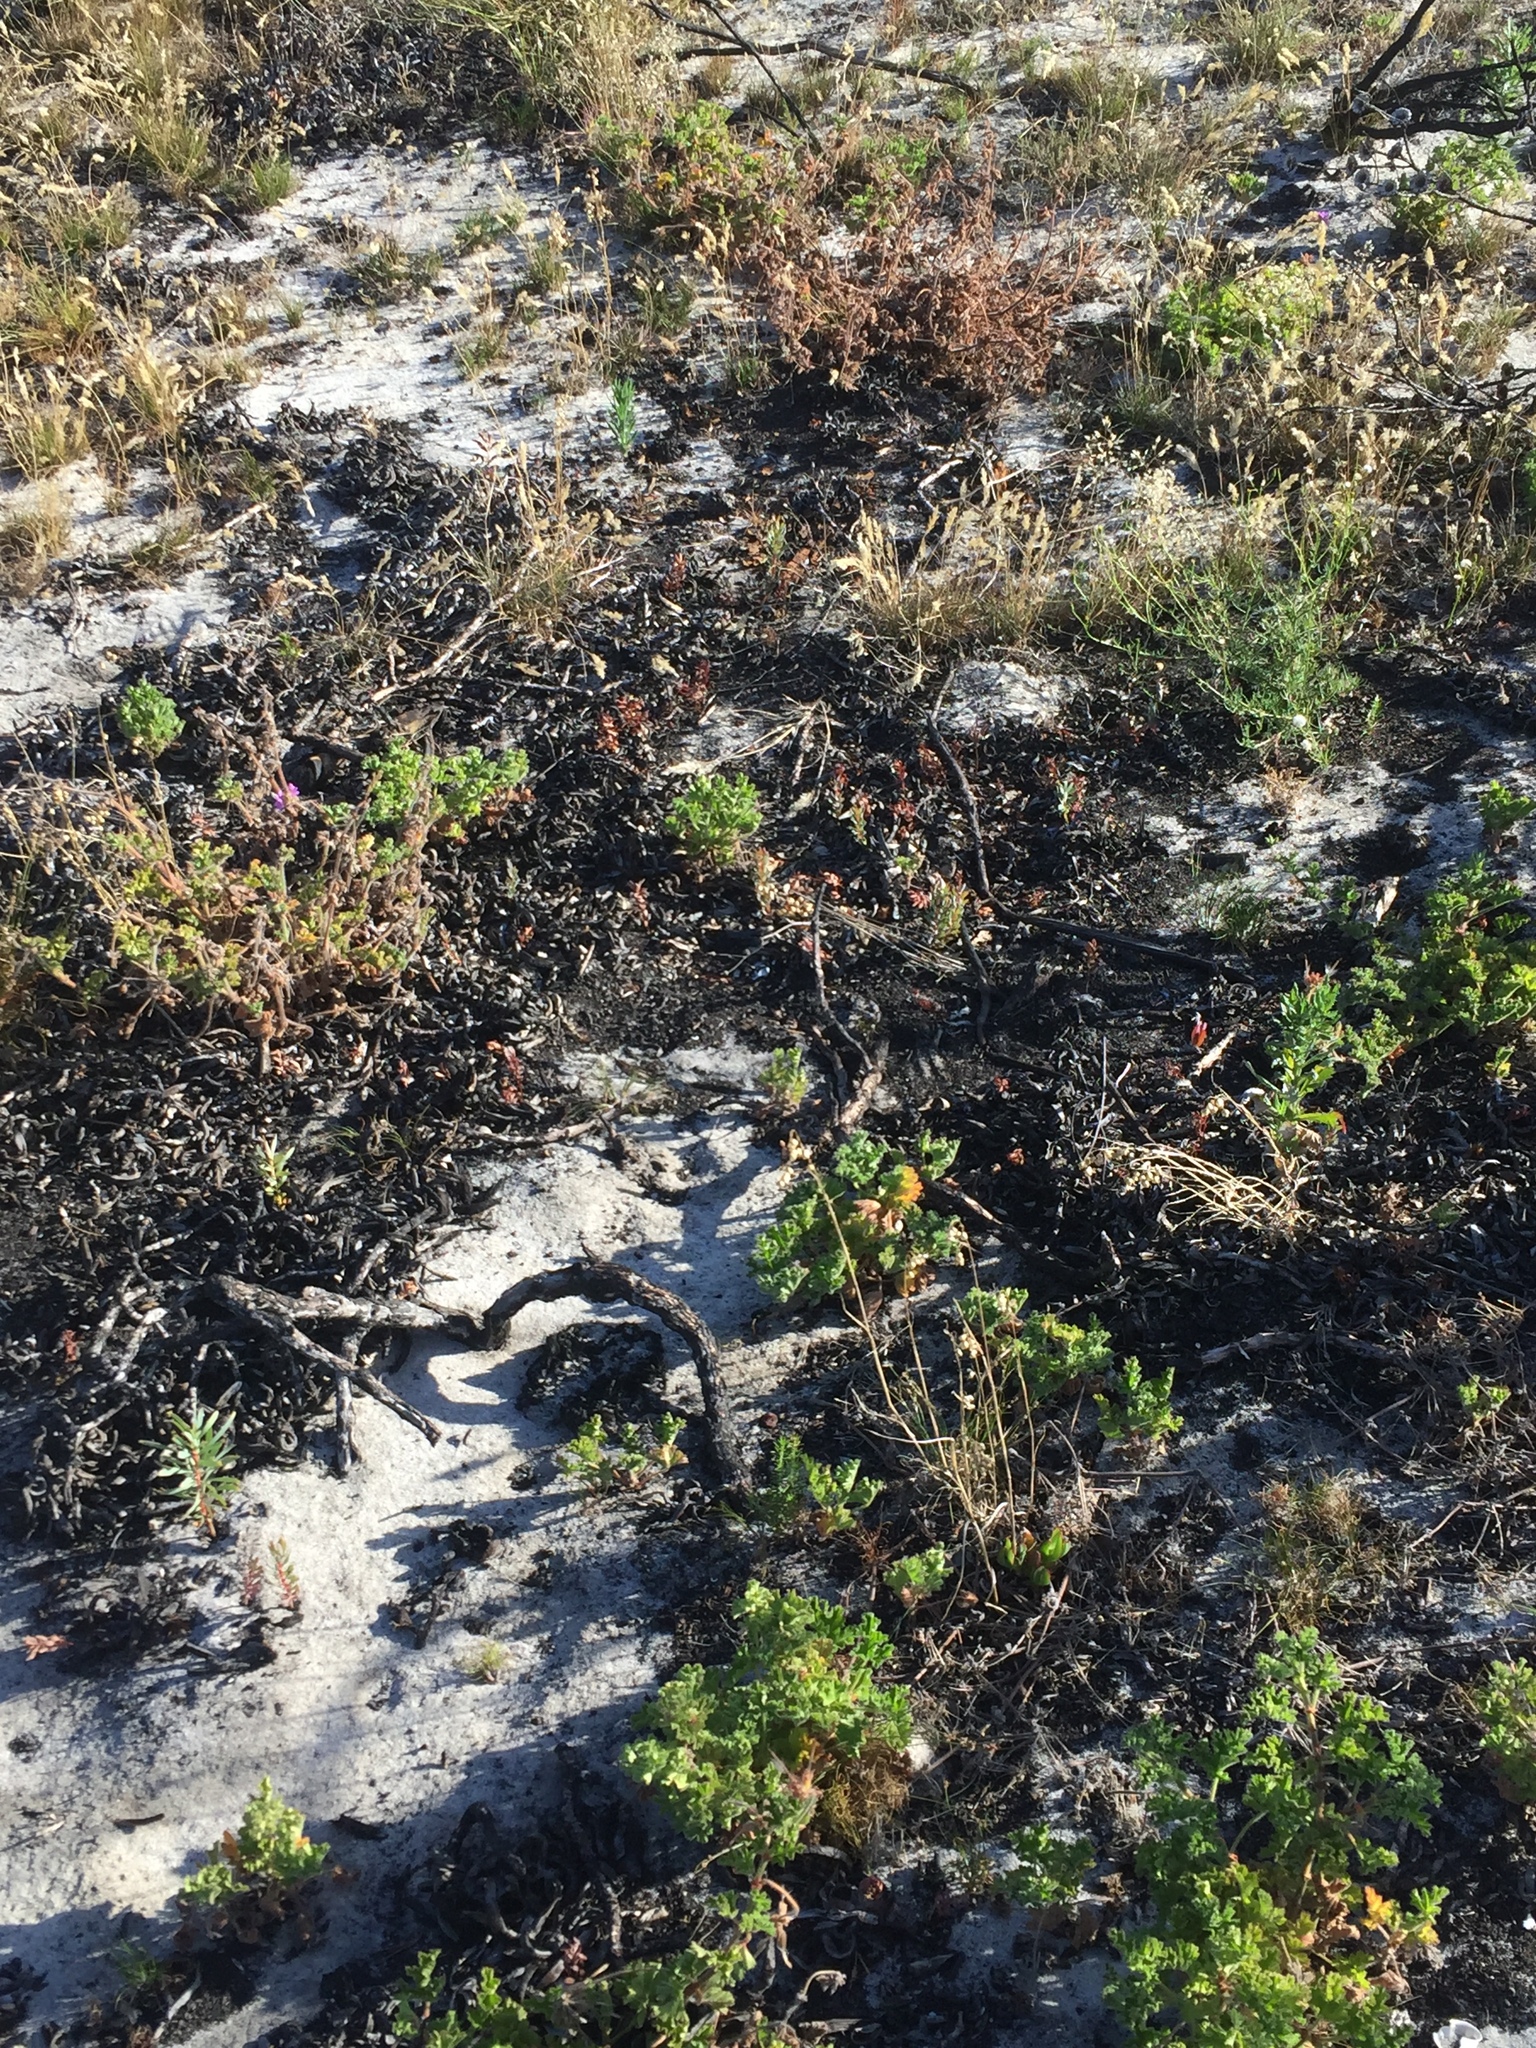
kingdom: Plantae
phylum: Tracheophyta
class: Magnoliopsida
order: Proteales
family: Proteaceae
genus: Protea
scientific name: Protea scolymocephala
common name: Thistle sugarbush
